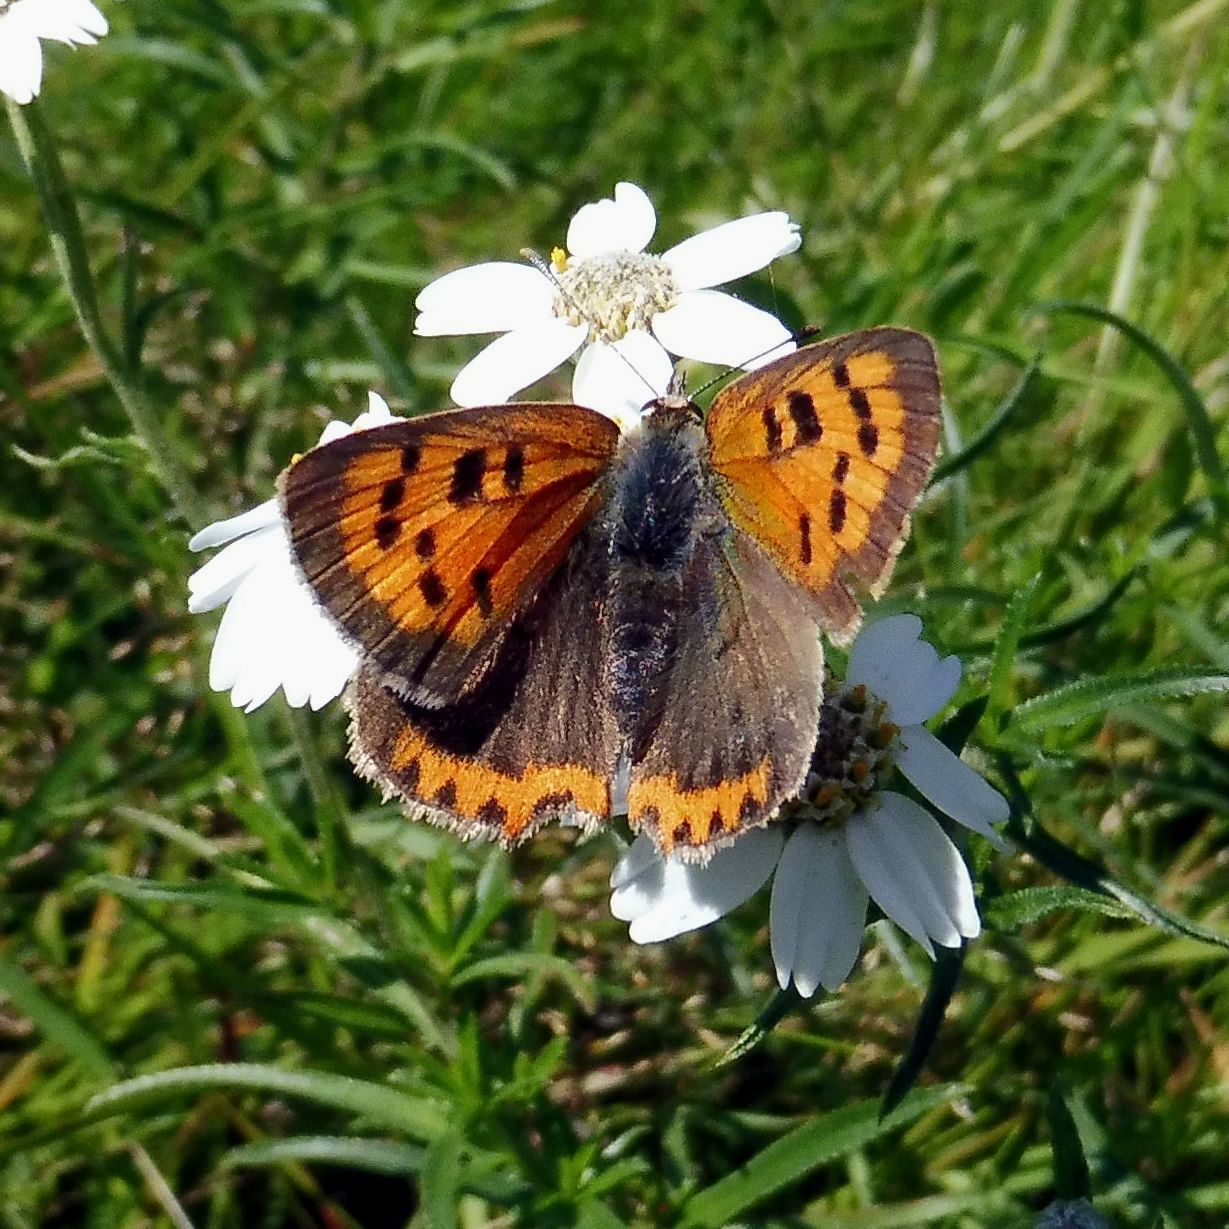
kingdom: Animalia
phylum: Arthropoda
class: Insecta
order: Lepidoptera
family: Lycaenidae
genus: Lycaena
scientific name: Lycaena phlaeas
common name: Small copper
